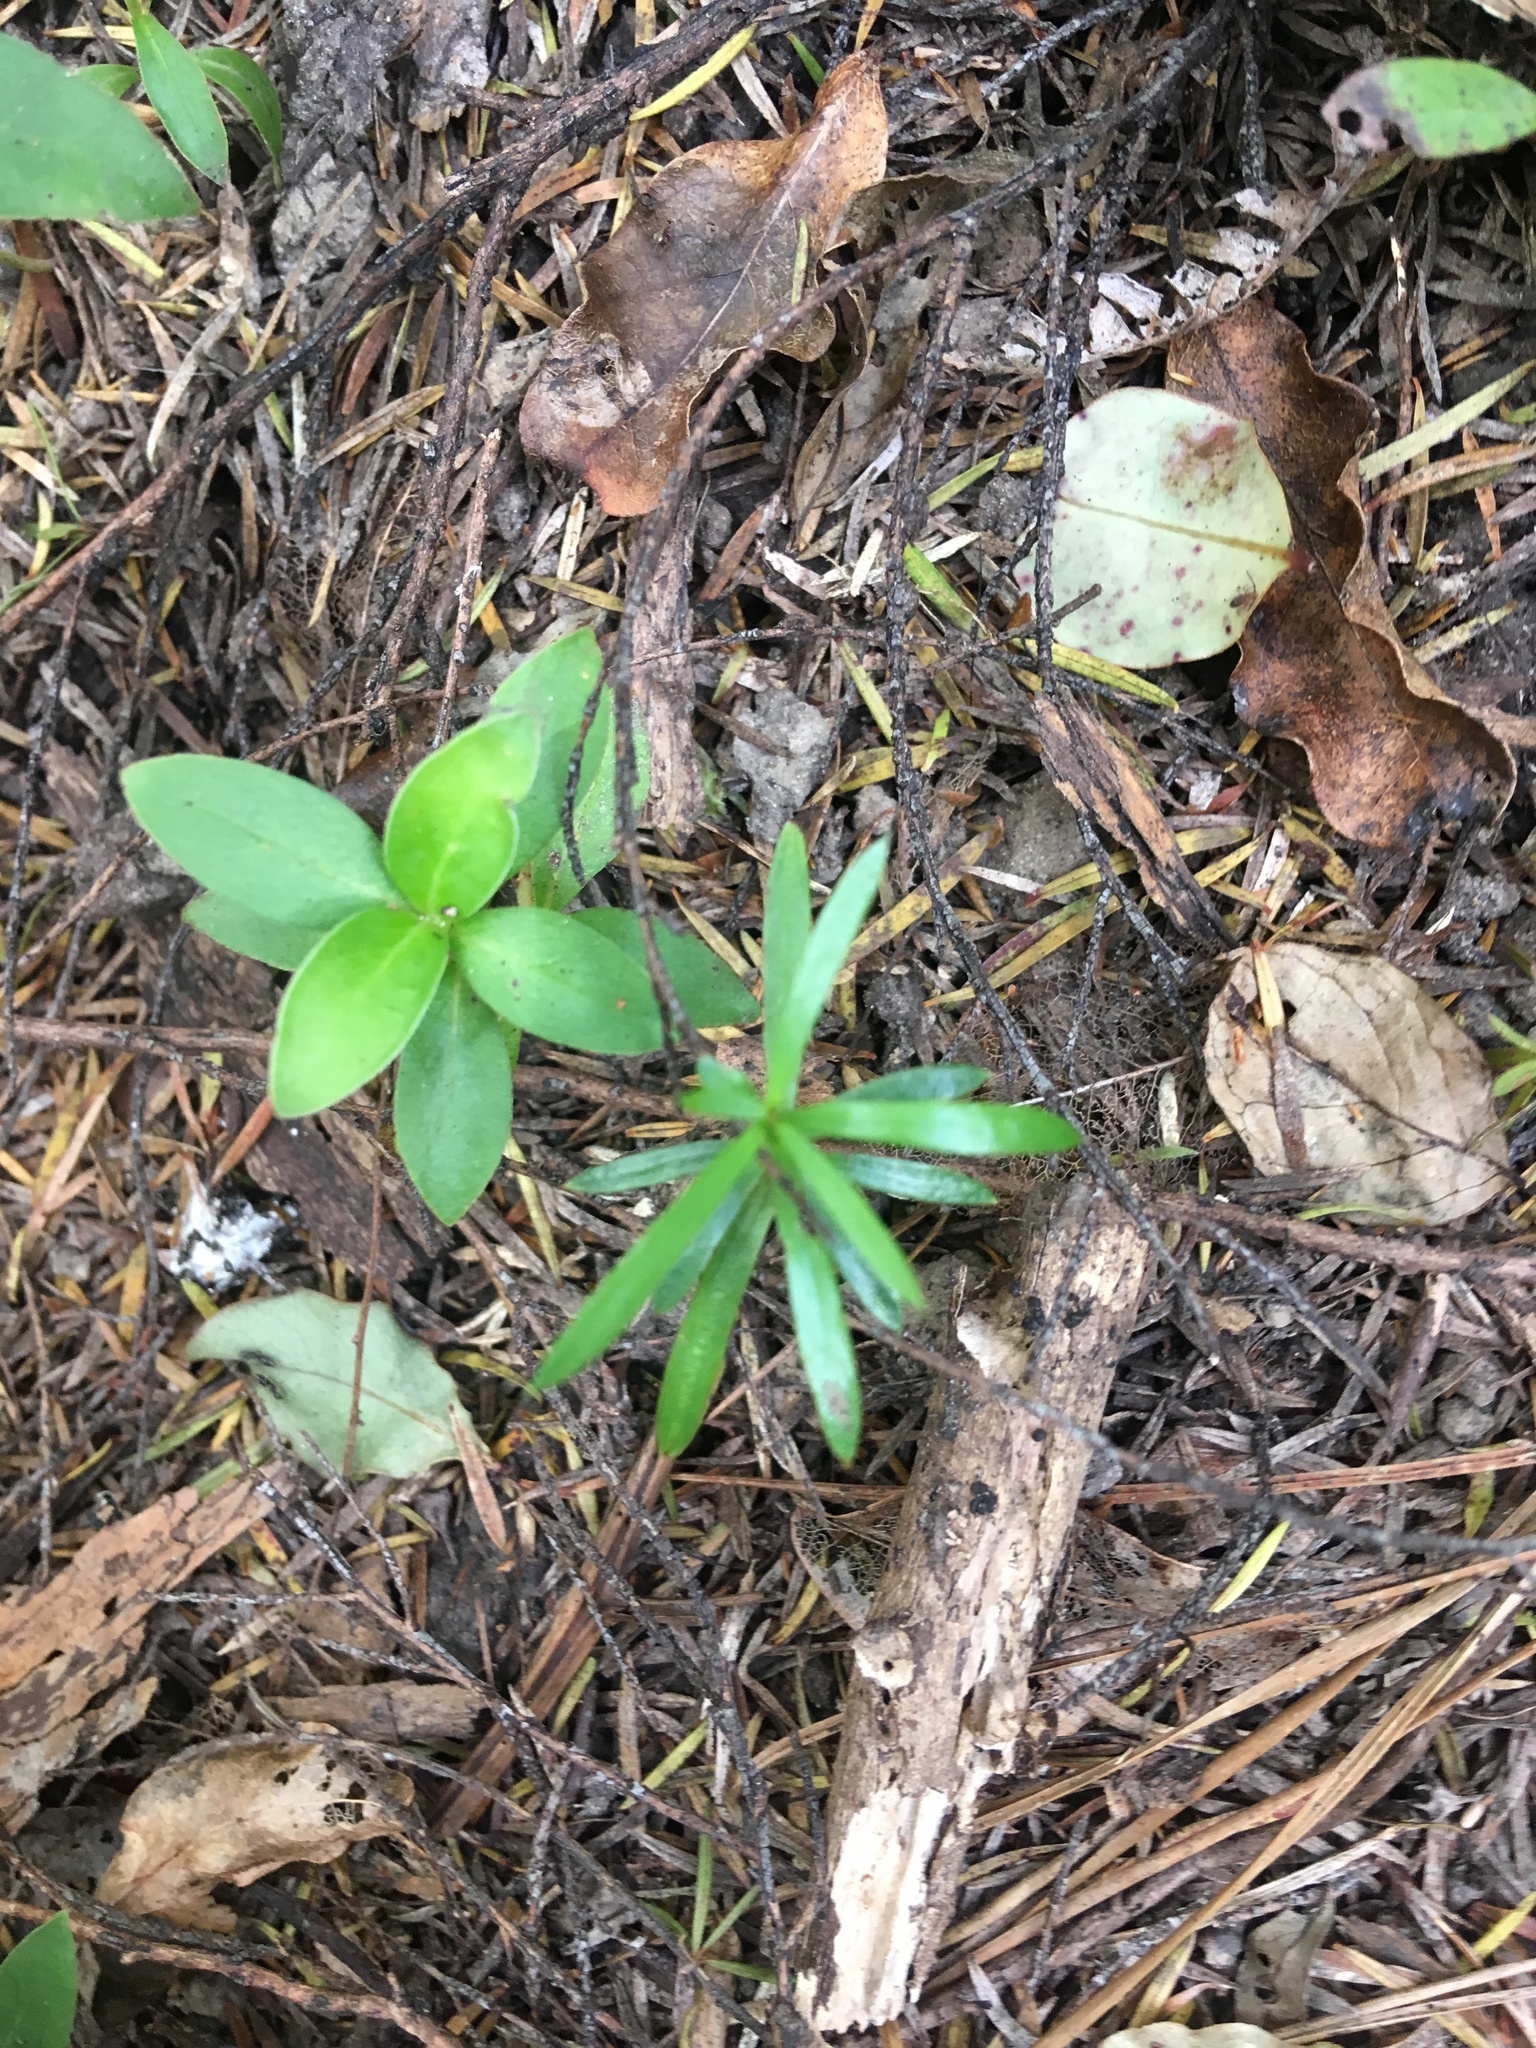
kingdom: Plantae
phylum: Tracheophyta
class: Pinopsida
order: Pinales
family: Podocarpaceae
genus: Podocarpus
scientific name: Podocarpus totara
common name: Totara
